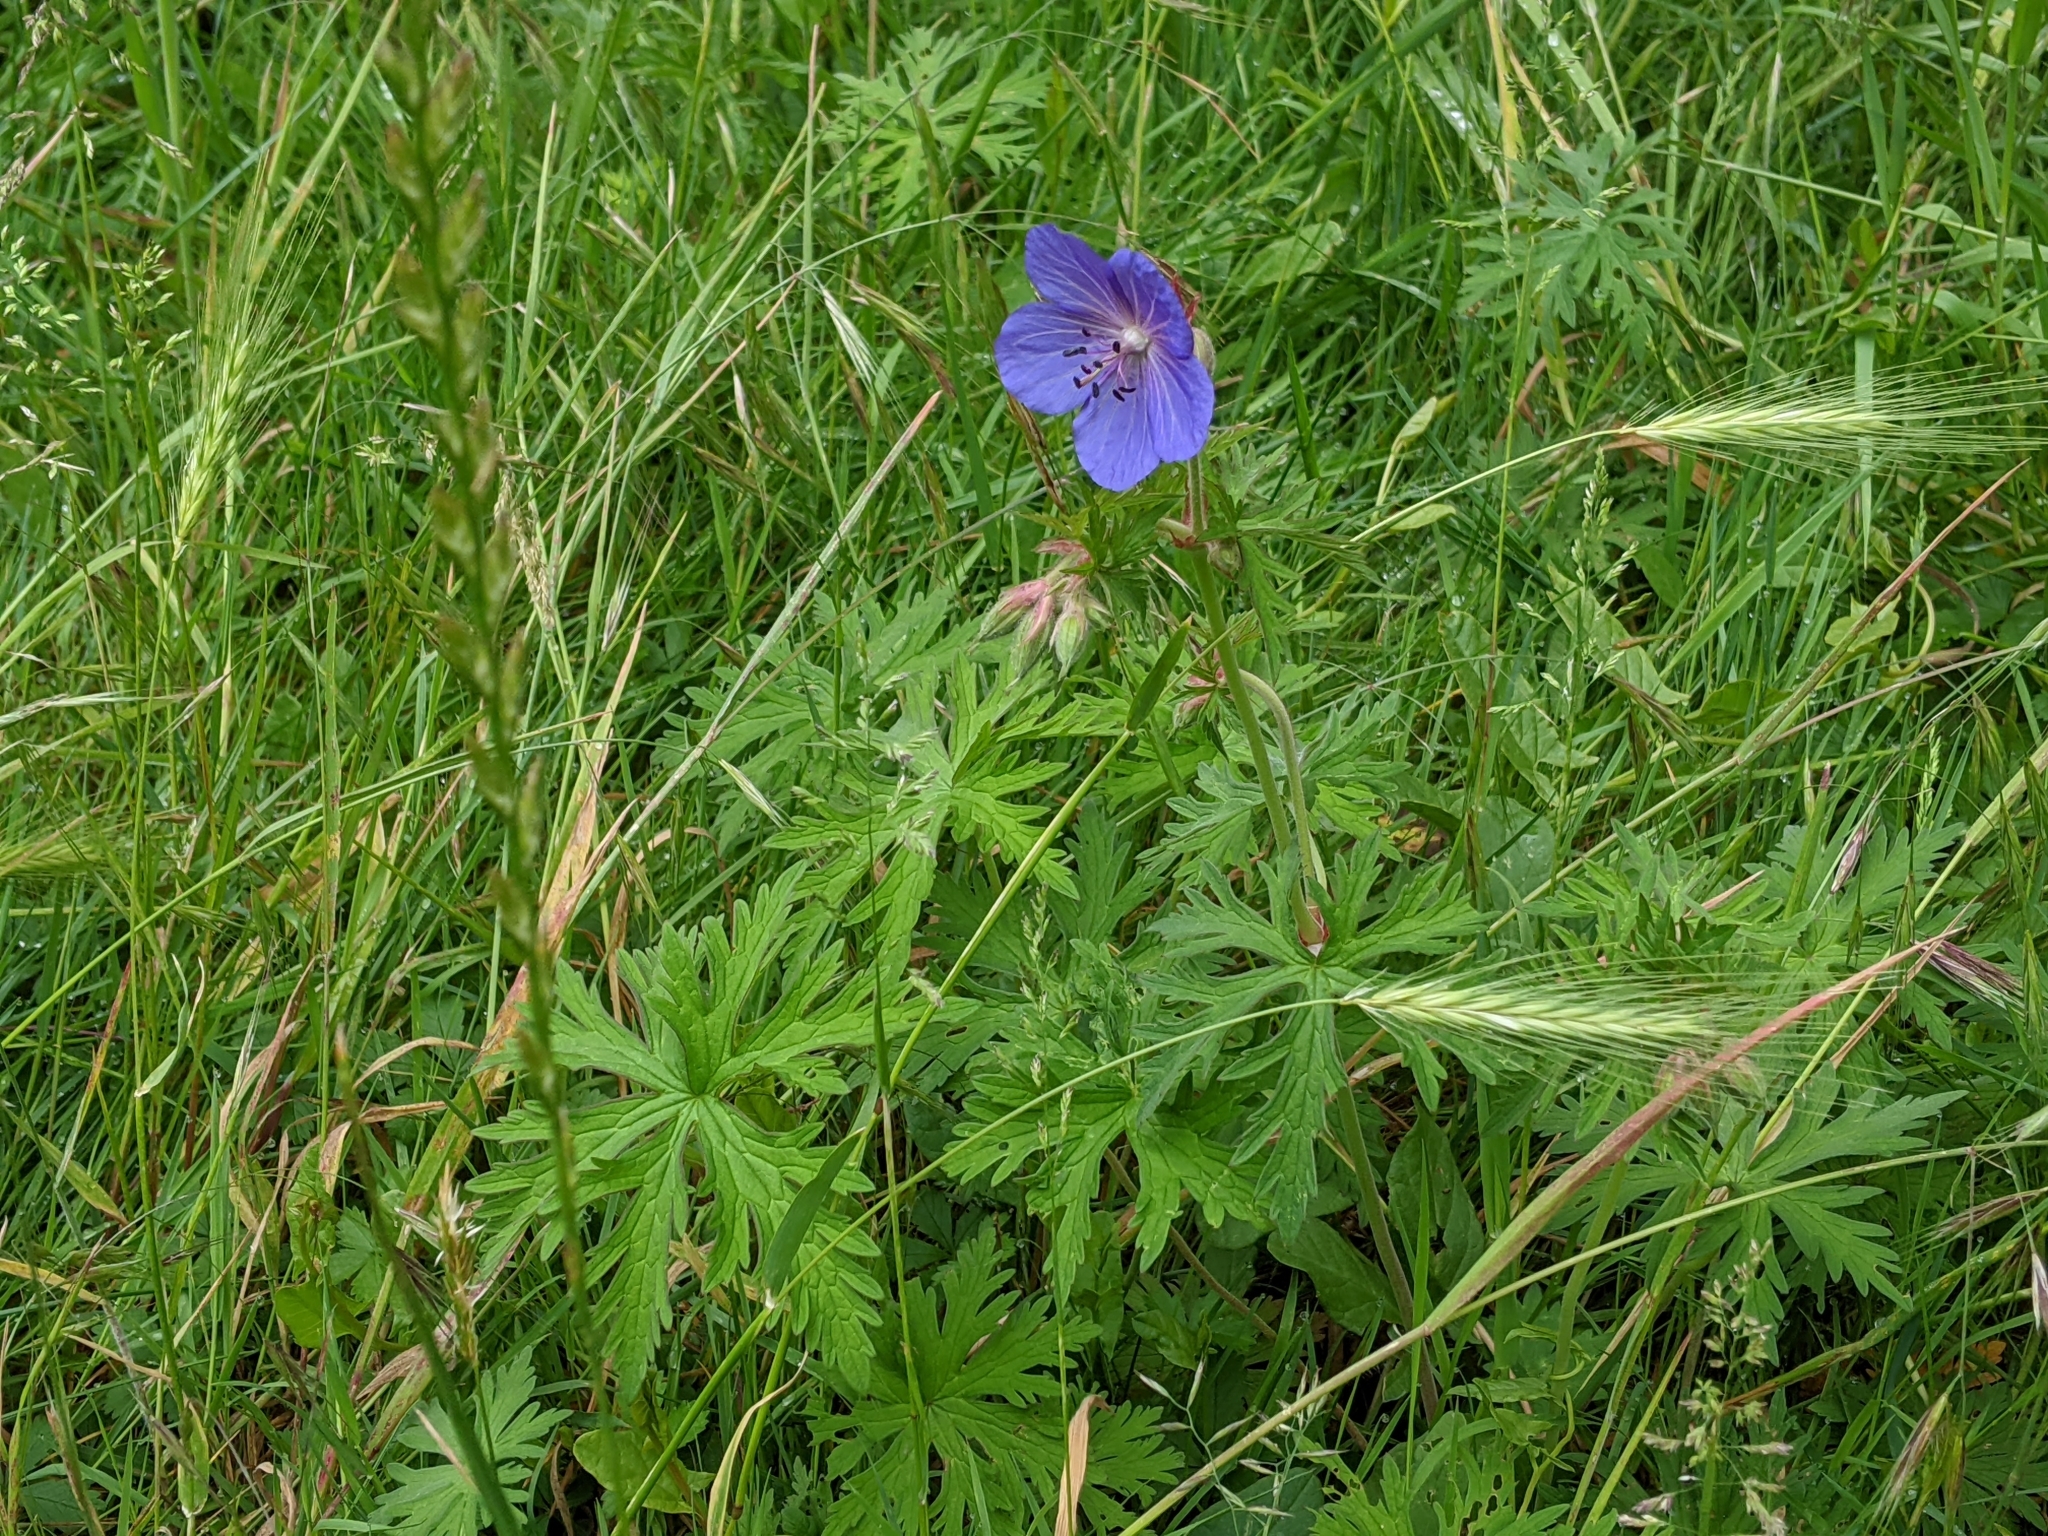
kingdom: Plantae
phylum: Tracheophyta
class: Magnoliopsida
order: Geraniales
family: Geraniaceae
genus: Geranium
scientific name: Geranium pratense
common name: Meadow crane's-bill
